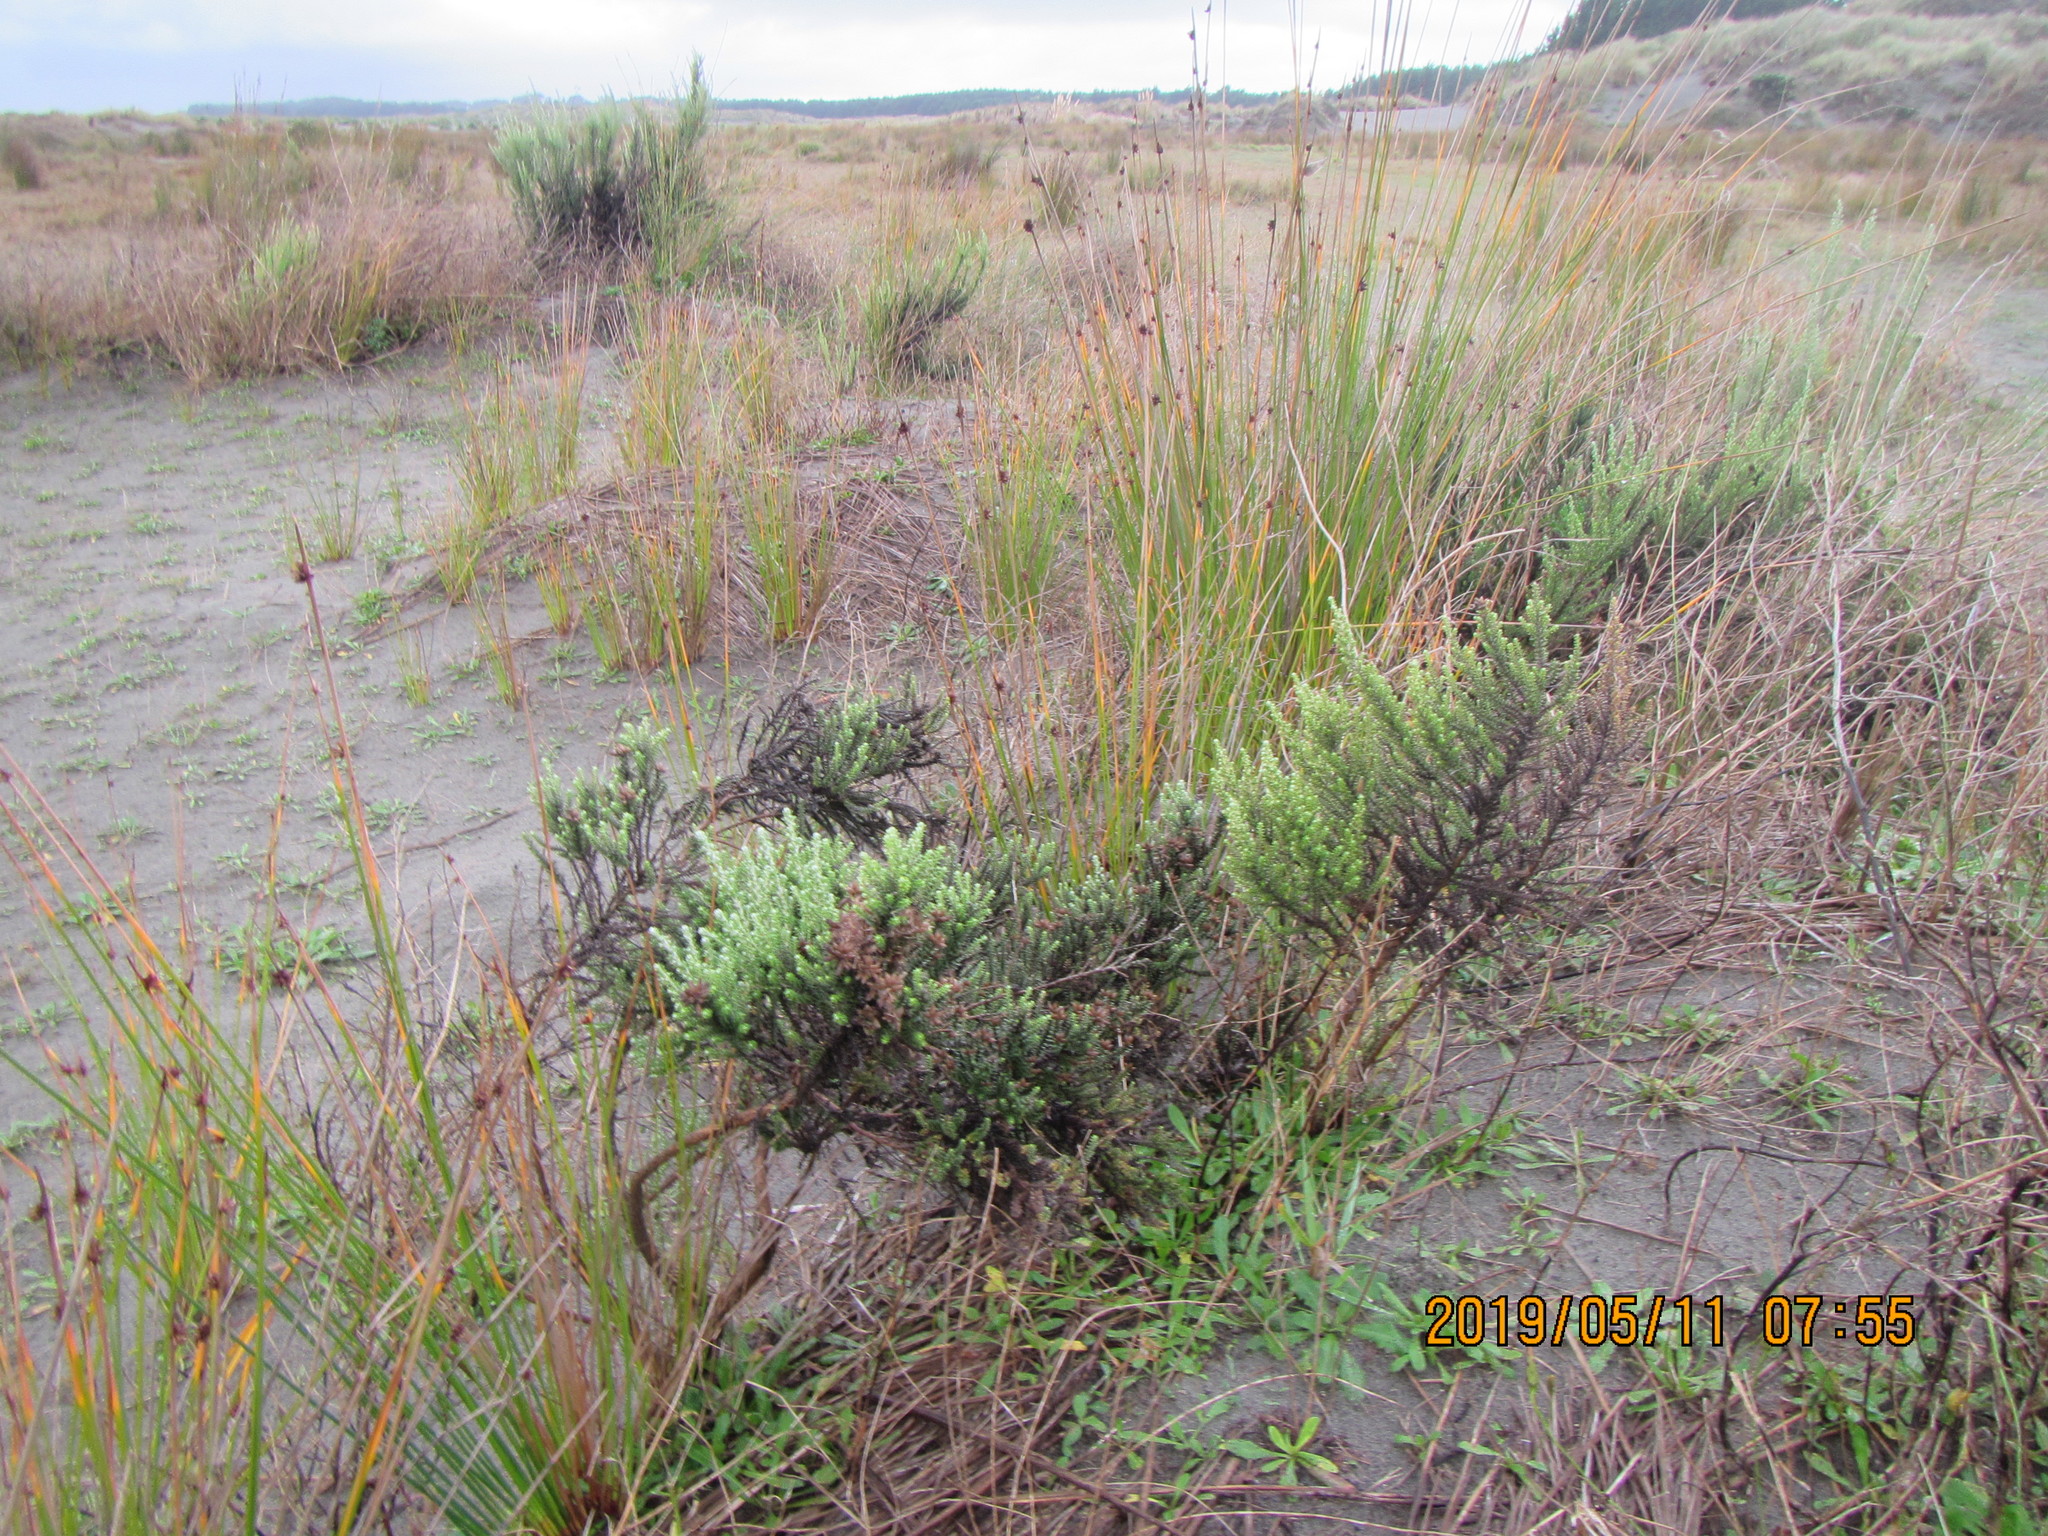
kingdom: Plantae
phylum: Tracheophyta
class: Magnoliopsida
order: Asterales
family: Asteraceae
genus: Ozothamnus
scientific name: Ozothamnus leptophyllus
